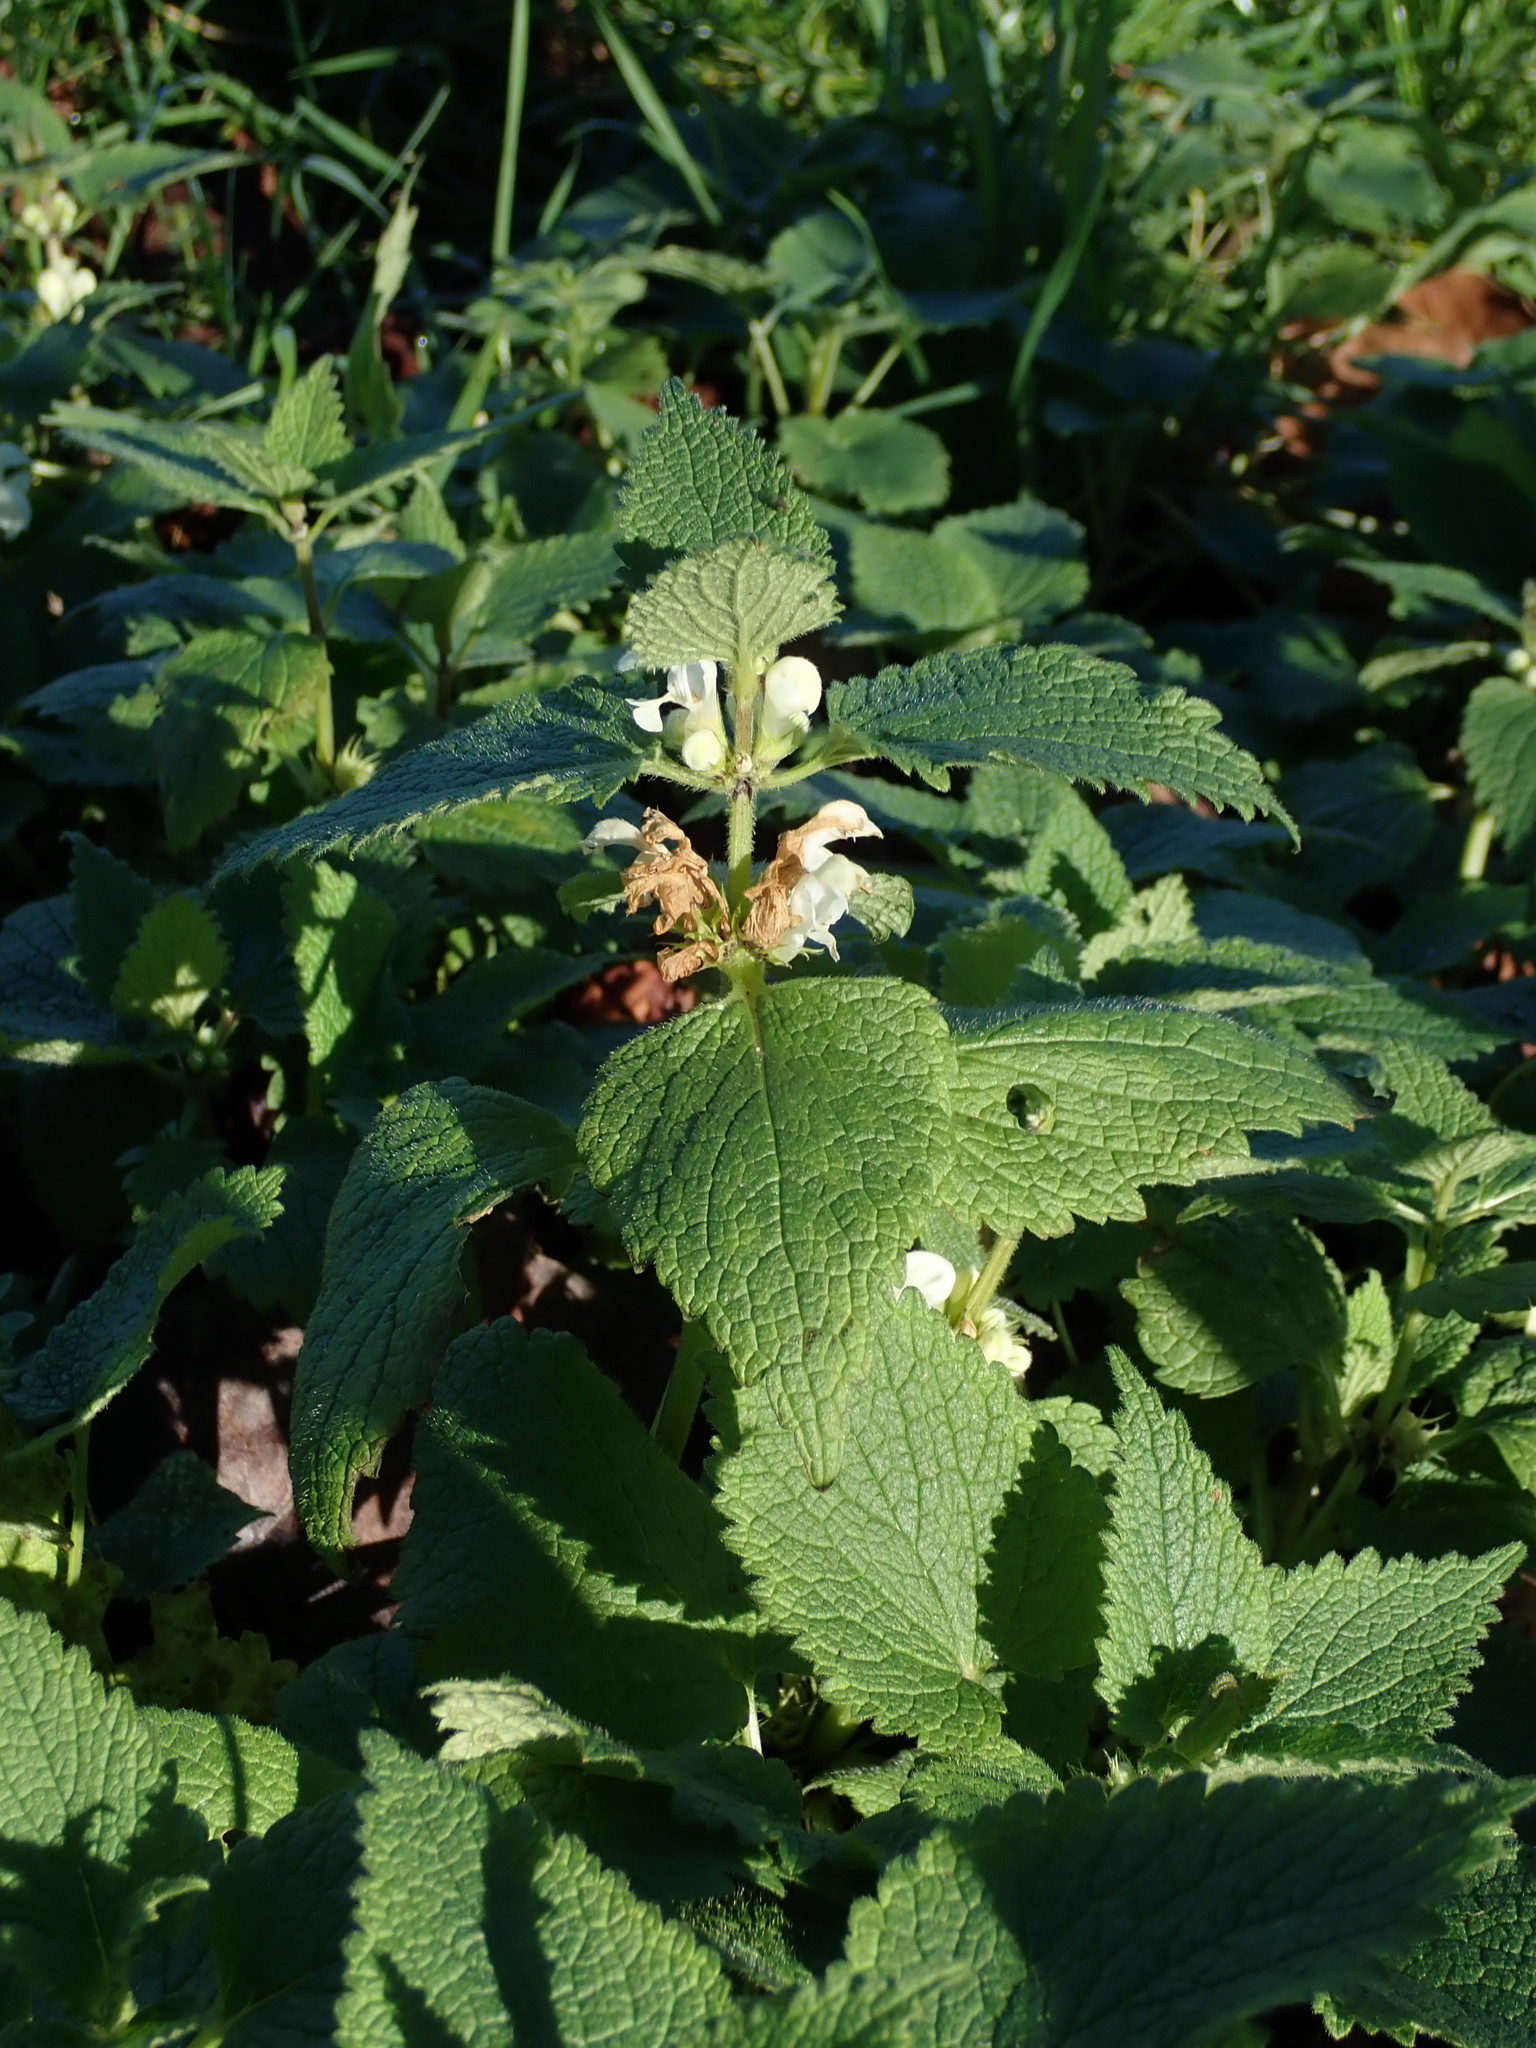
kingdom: Plantae
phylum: Tracheophyta
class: Magnoliopsida
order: Lamiales
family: Lamiaceae
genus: Lamium
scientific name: Lamium album
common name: White dead-nettle
